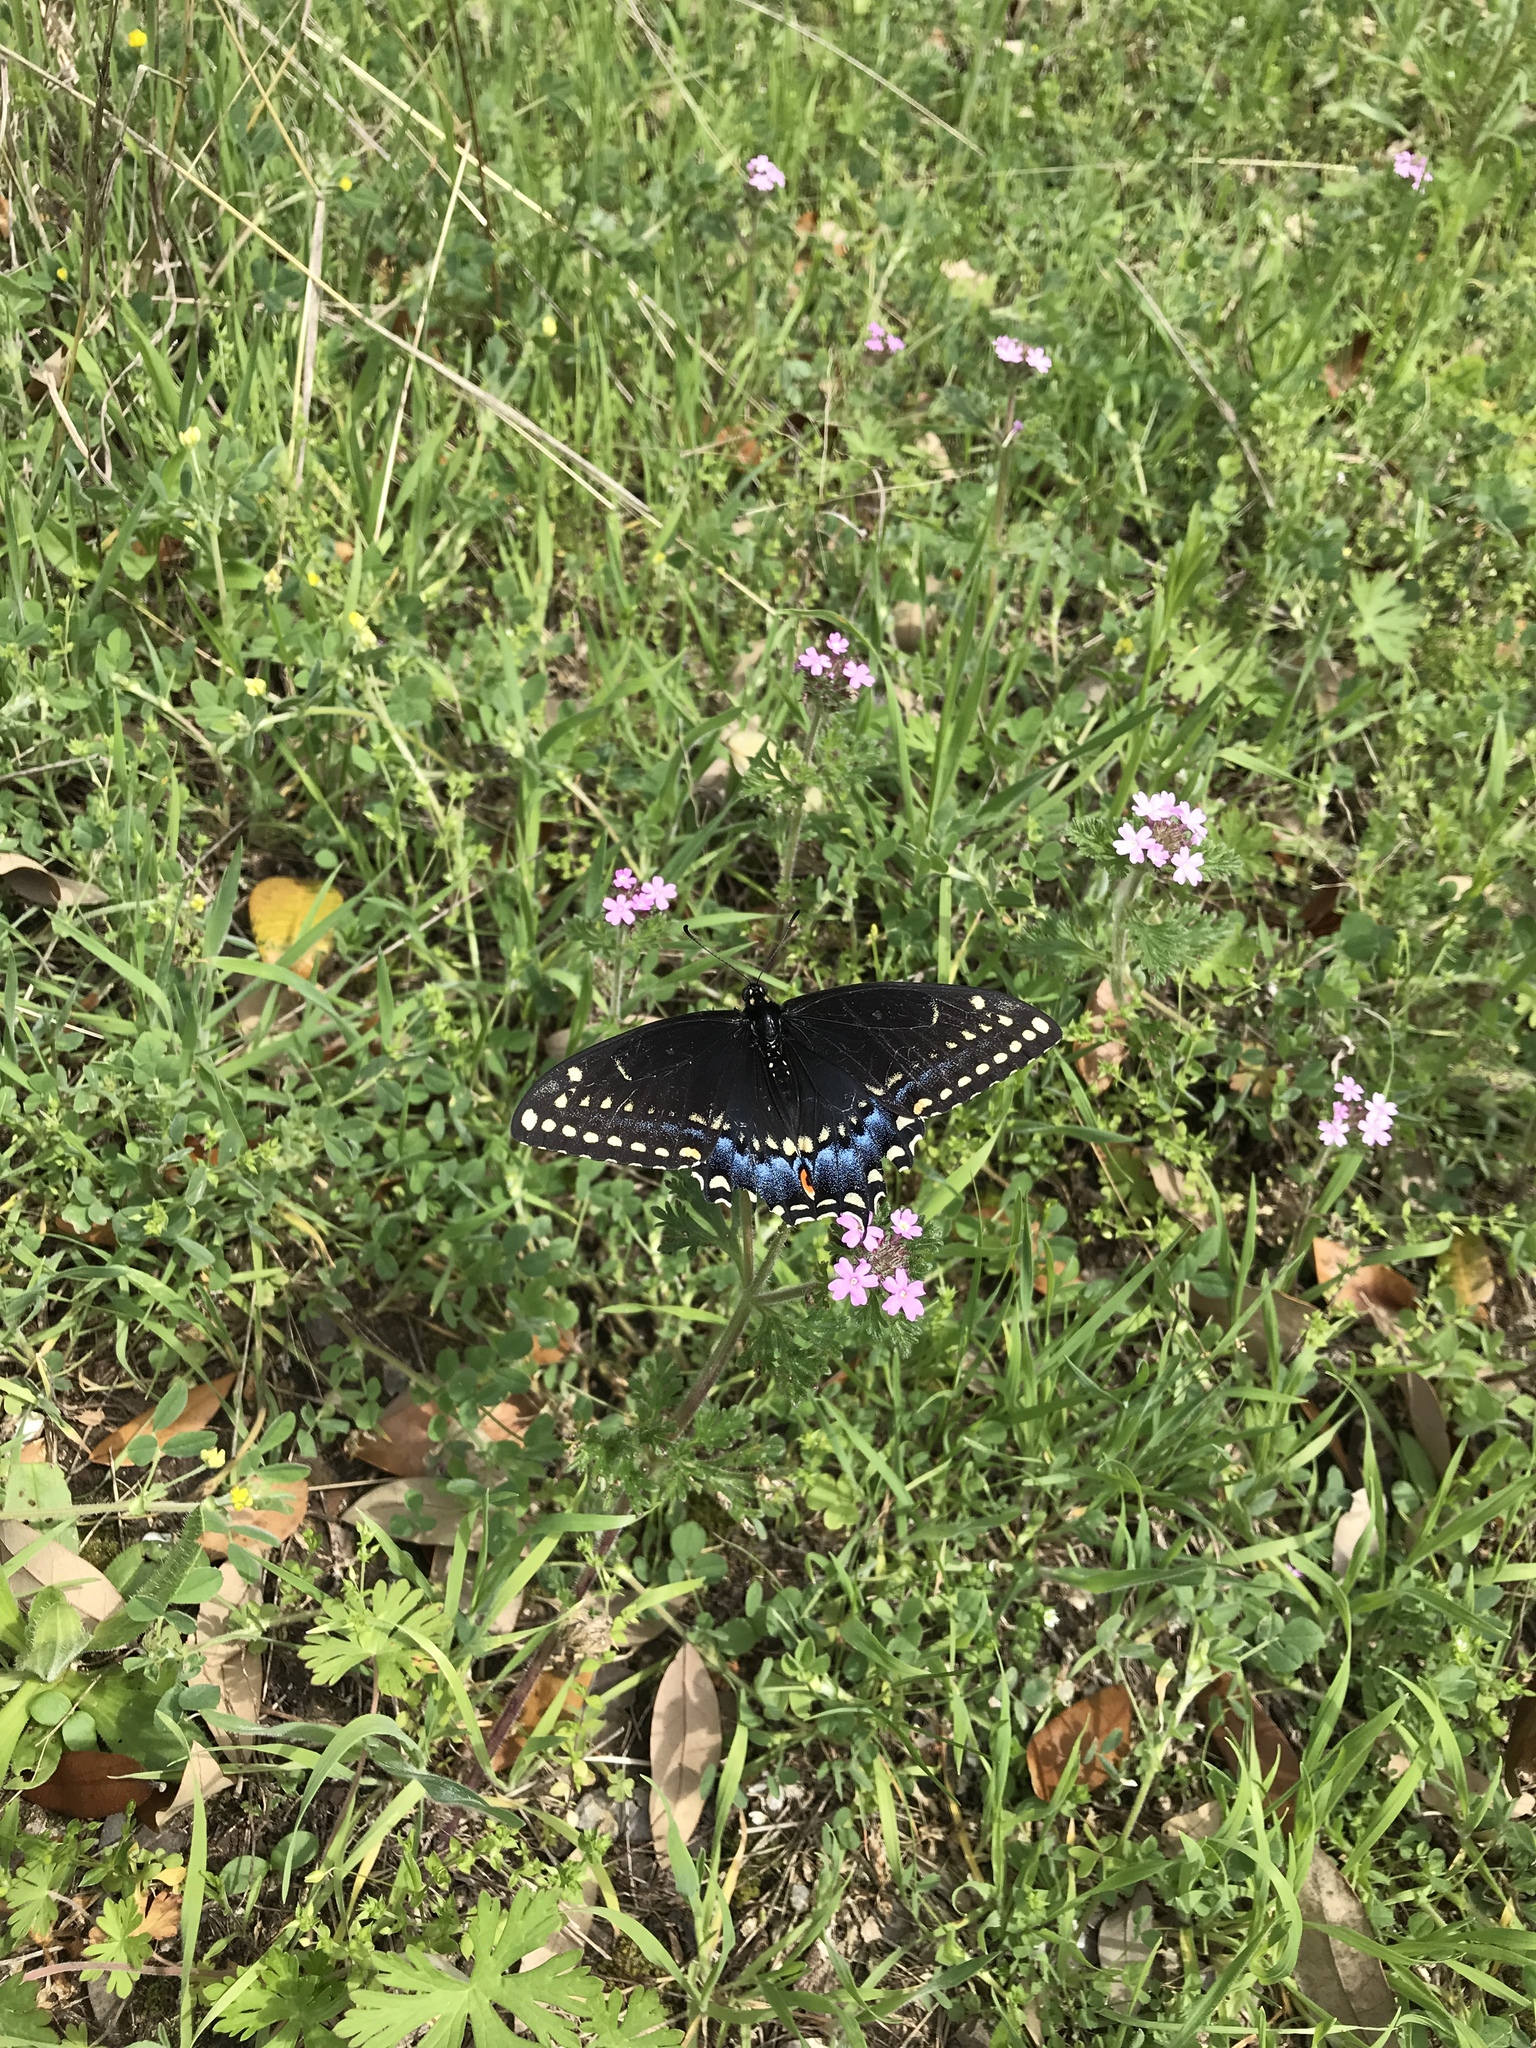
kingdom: Animalia
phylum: Arthropoda
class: Insecta
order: Lepidoptera
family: Papilionidae
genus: Papilio
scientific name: Papilio polyxenes
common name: Black swallowtail
